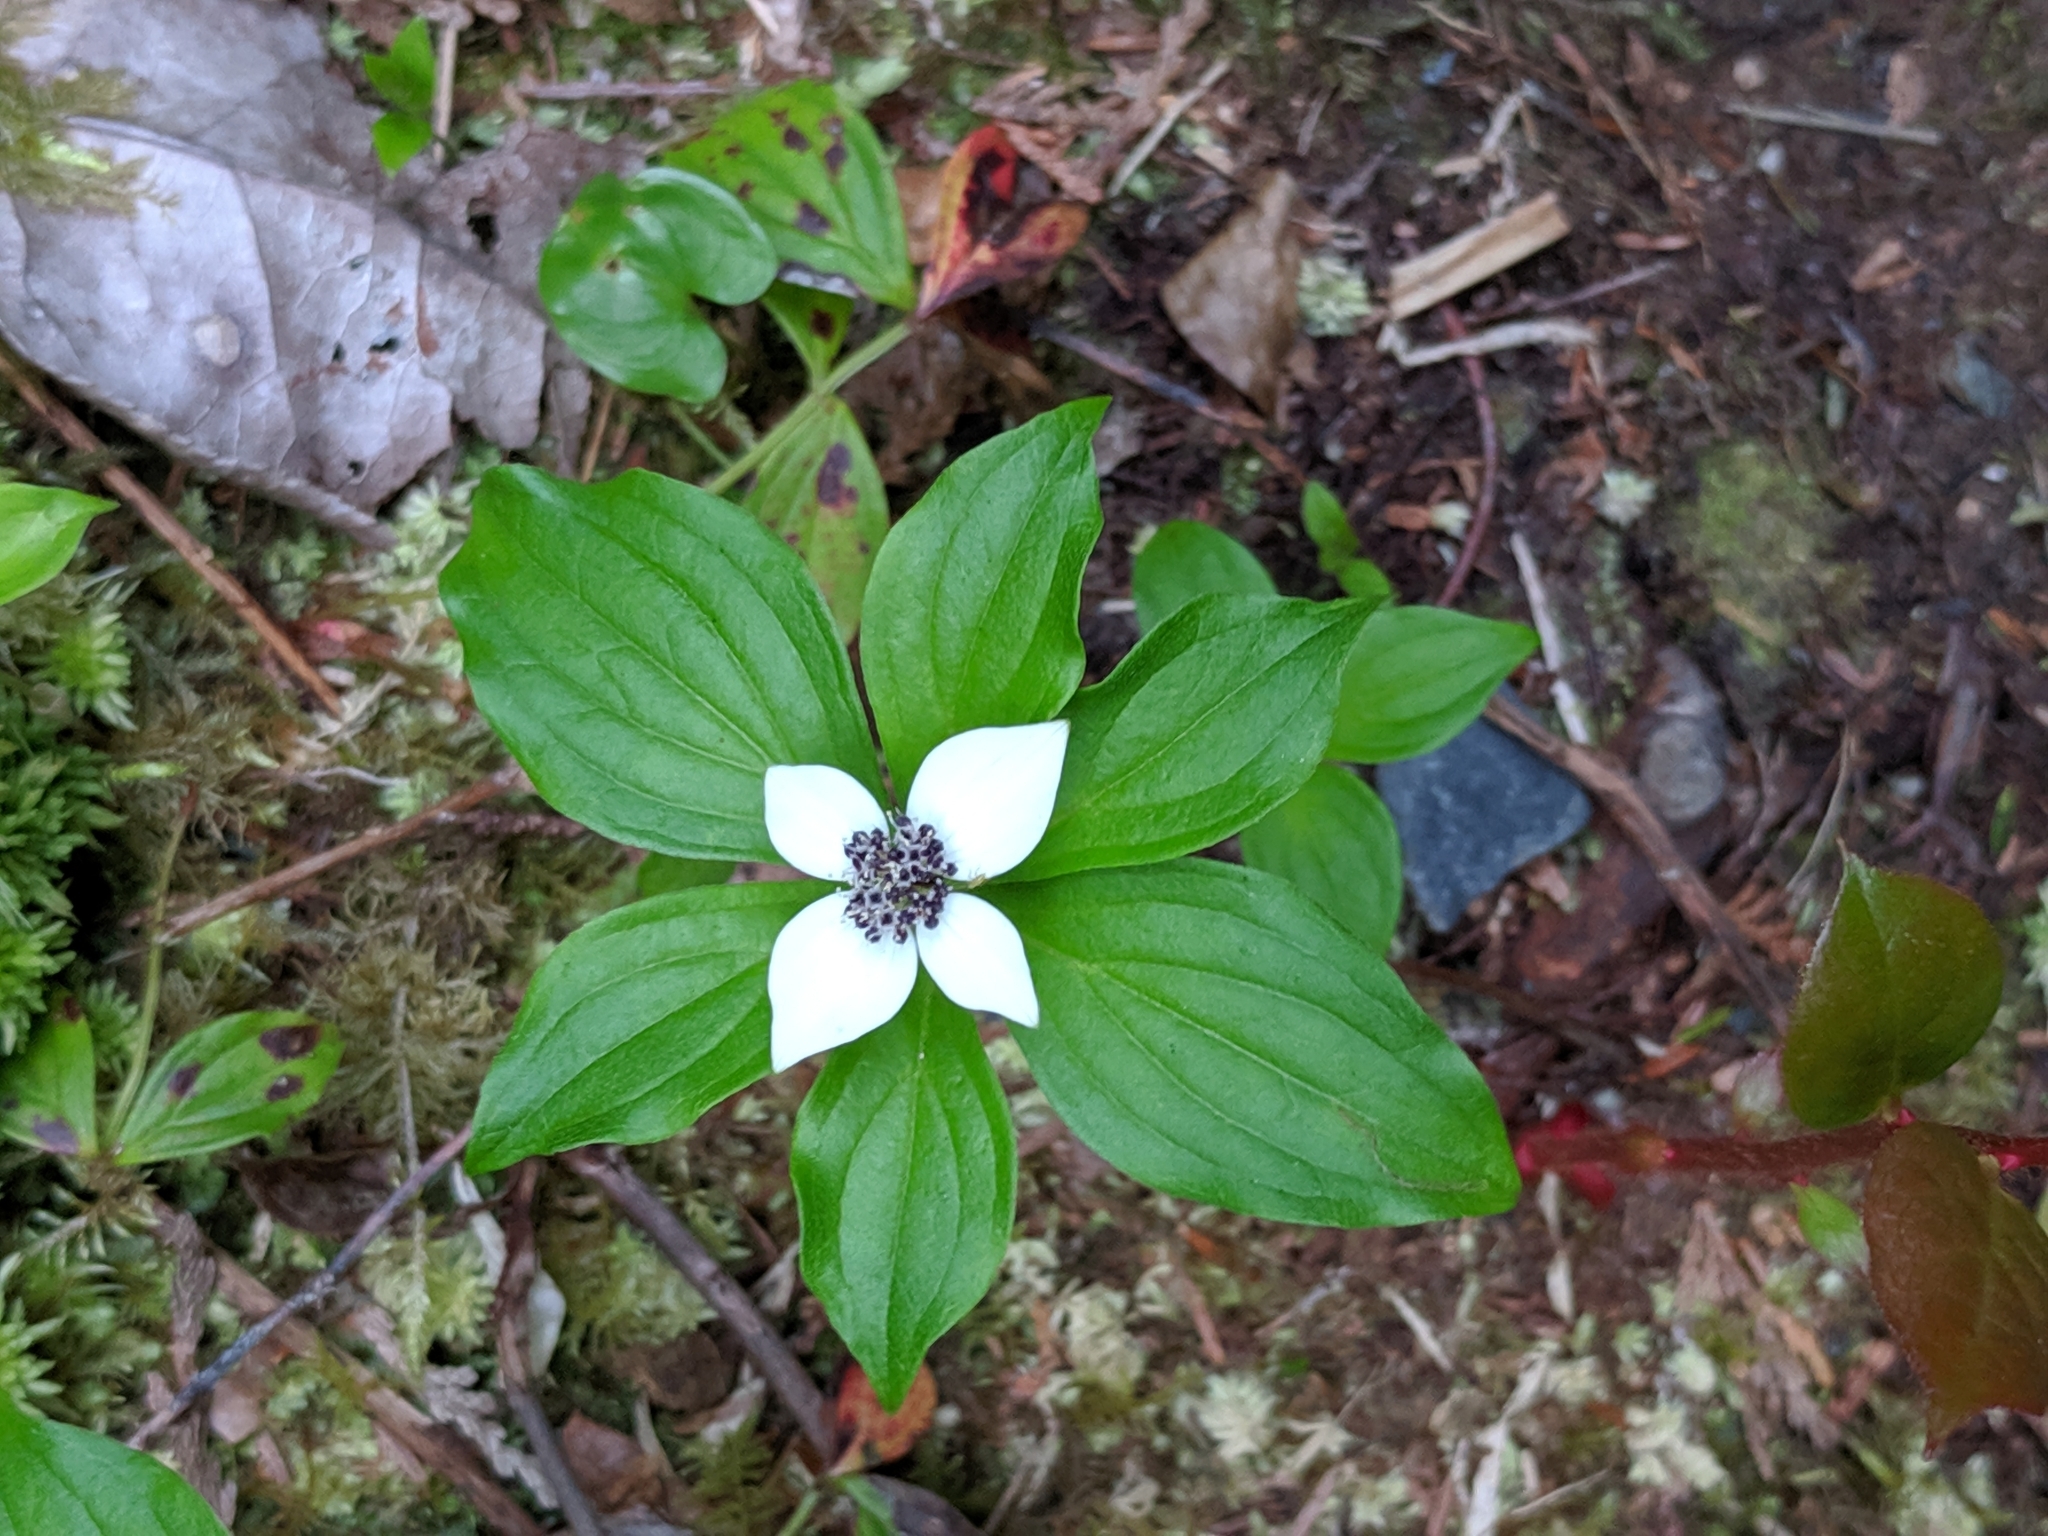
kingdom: Plantae
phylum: Tracheophyta
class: Magnoliopsida
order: Cornales
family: Cornaceae
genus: Cornus
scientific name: Cornus unalaschkensis
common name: Alaska bunchberry
